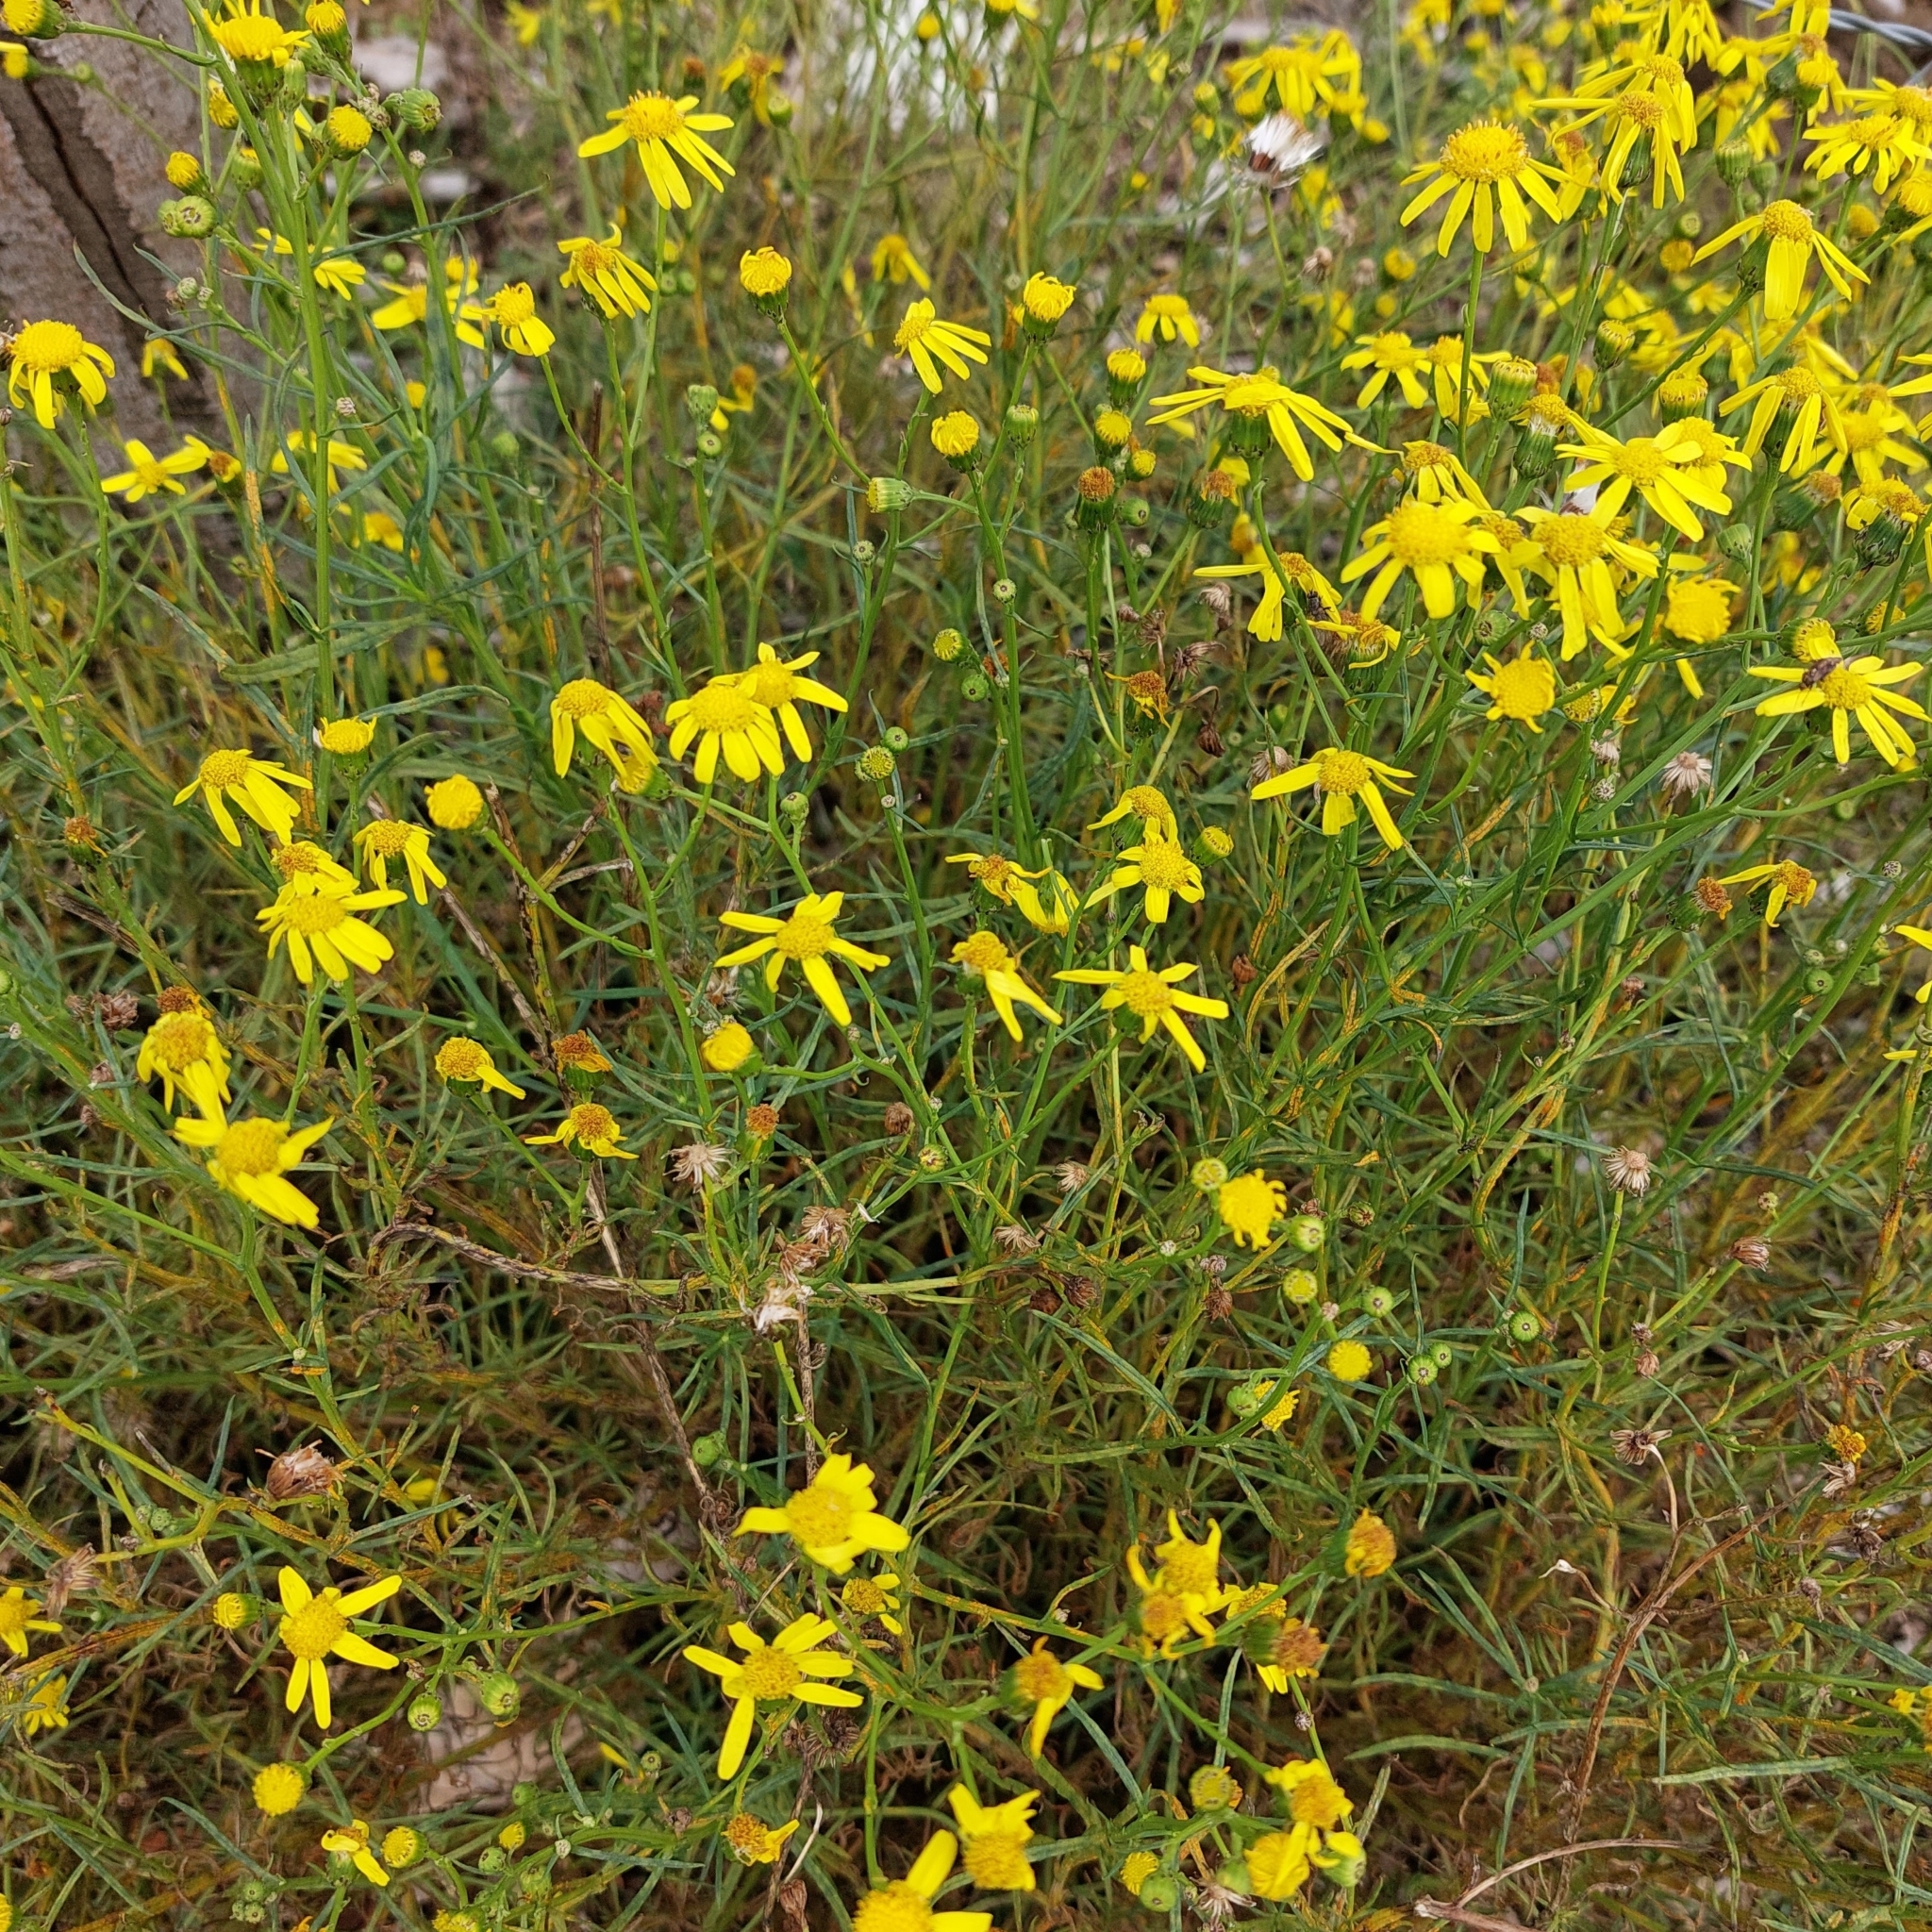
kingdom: Plantae
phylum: Tracheophyta
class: Magnoliopsida
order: Asterales
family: Asteraceae
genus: Senecio
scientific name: Senecio inaequidens
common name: Narrow-leaved ragwort
